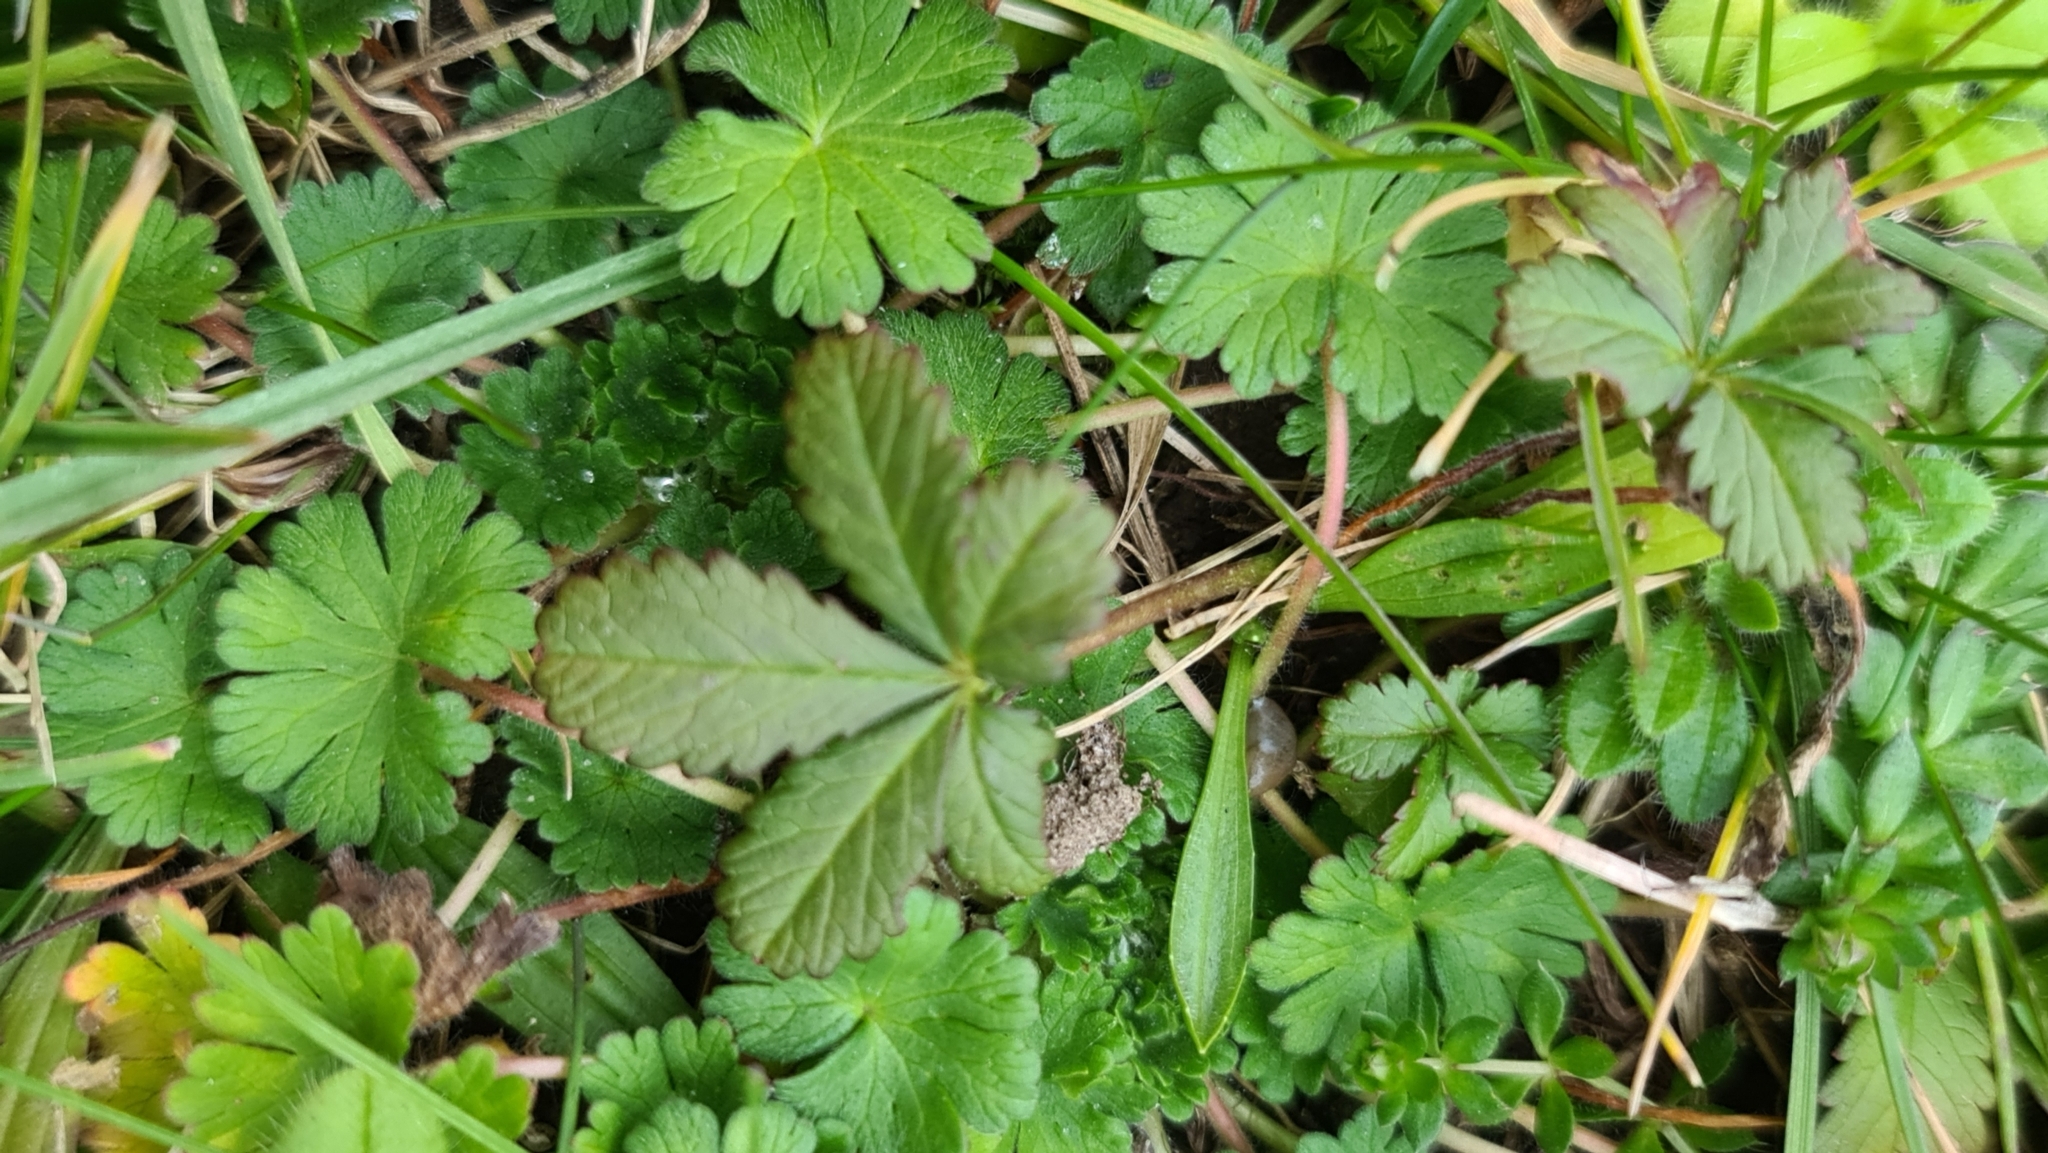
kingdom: Plantae
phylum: Tracheophyta
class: Magnoliopsida
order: Rosales
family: Rosaceae
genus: Potentilla
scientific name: Potentilla reptans
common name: Creeping cinquefoil
